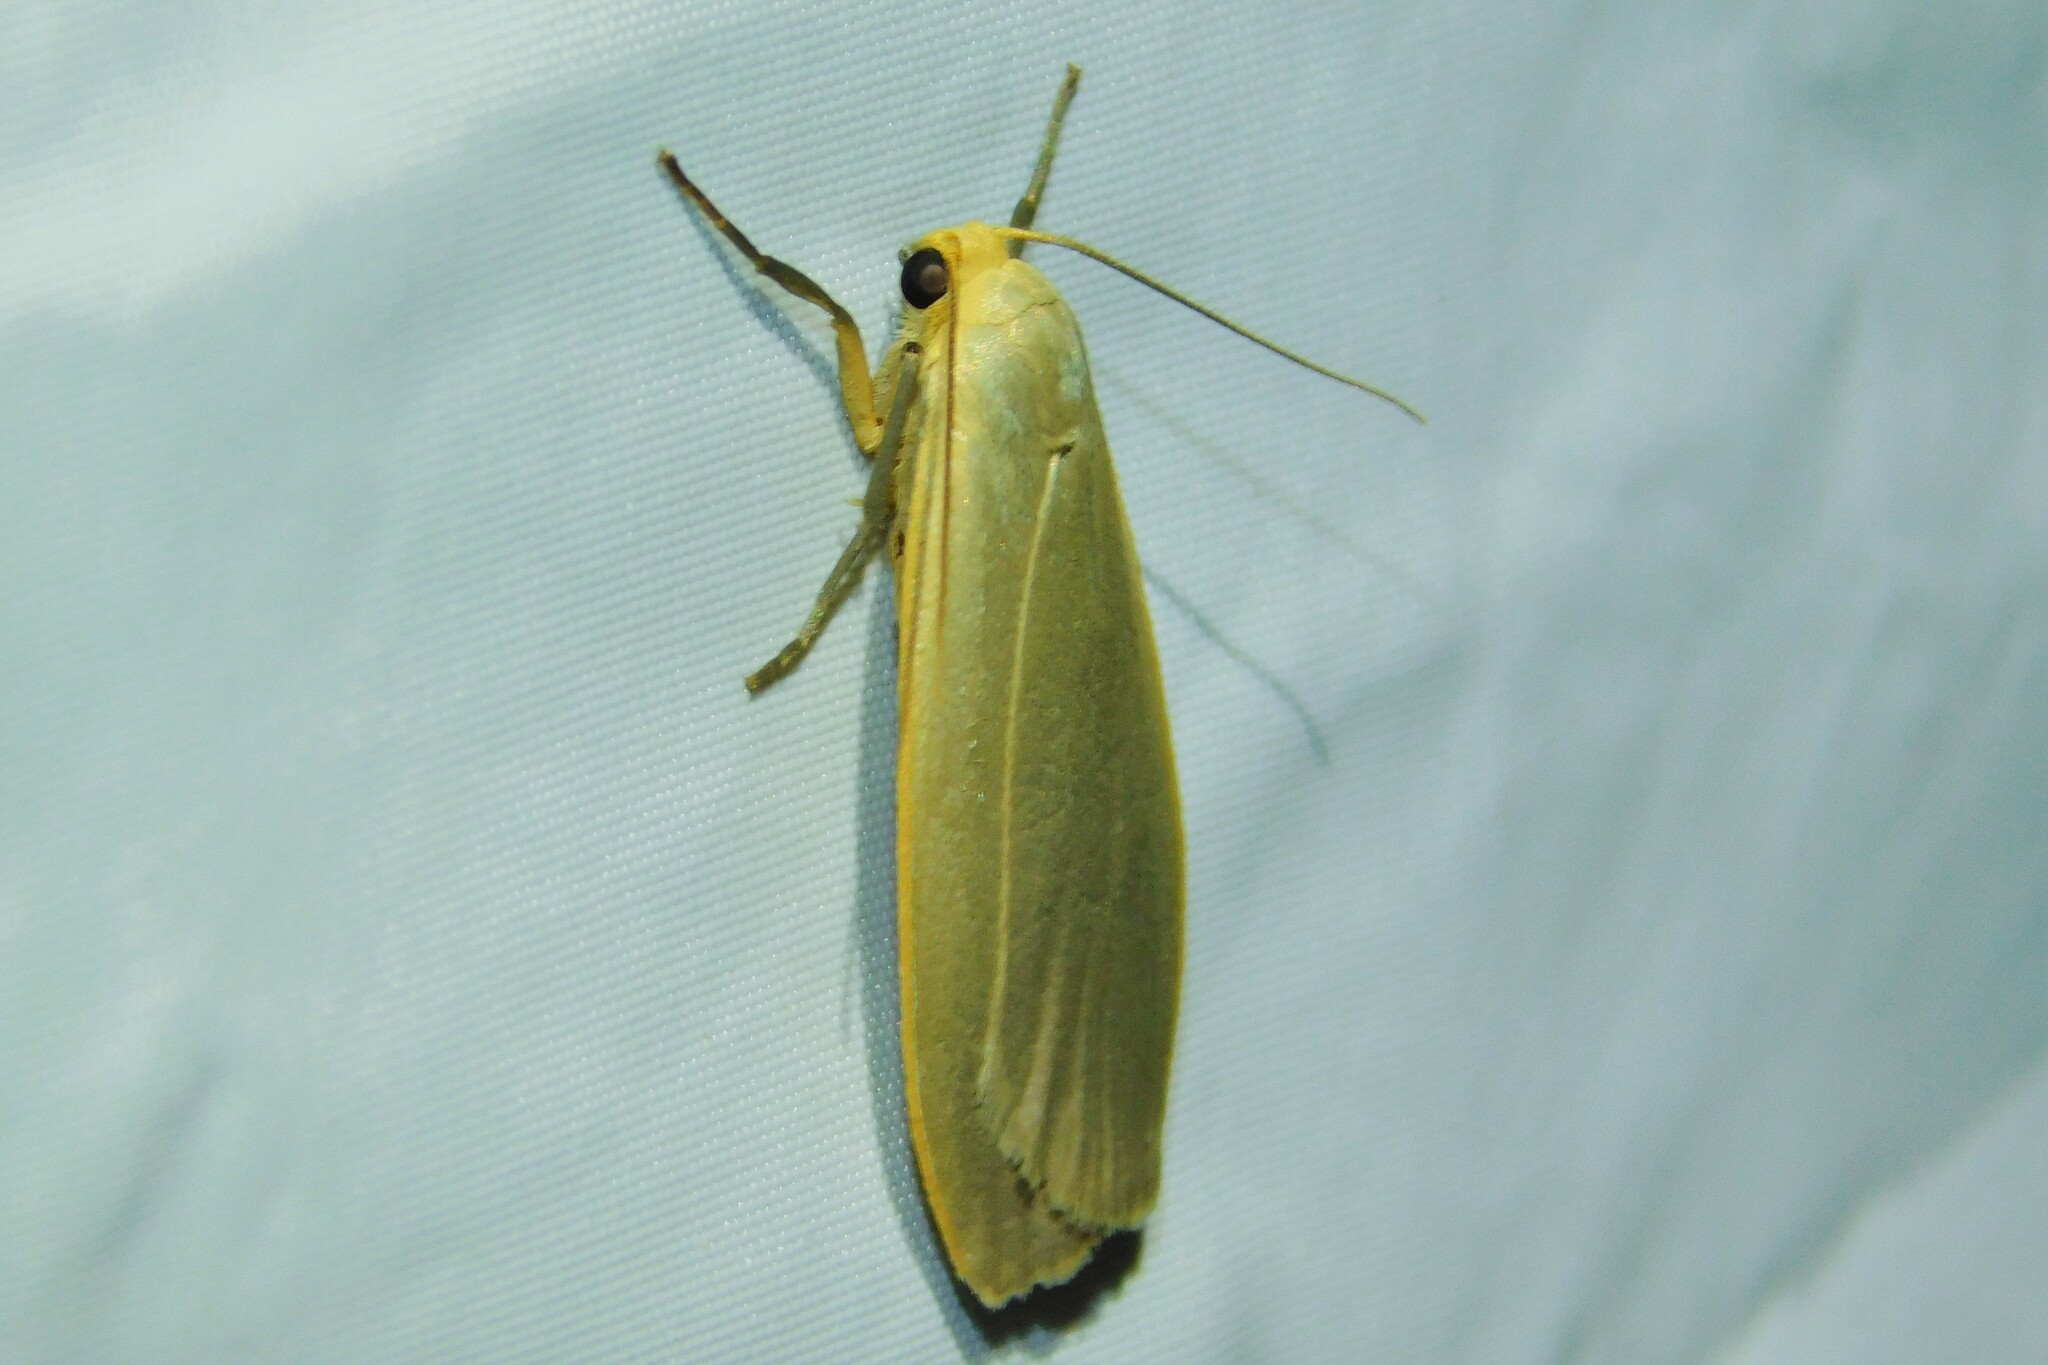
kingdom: Animalia
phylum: Arthropoda
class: Insecta
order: Lepidoptera
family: Erebidae
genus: Collita
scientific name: Collita griseola
